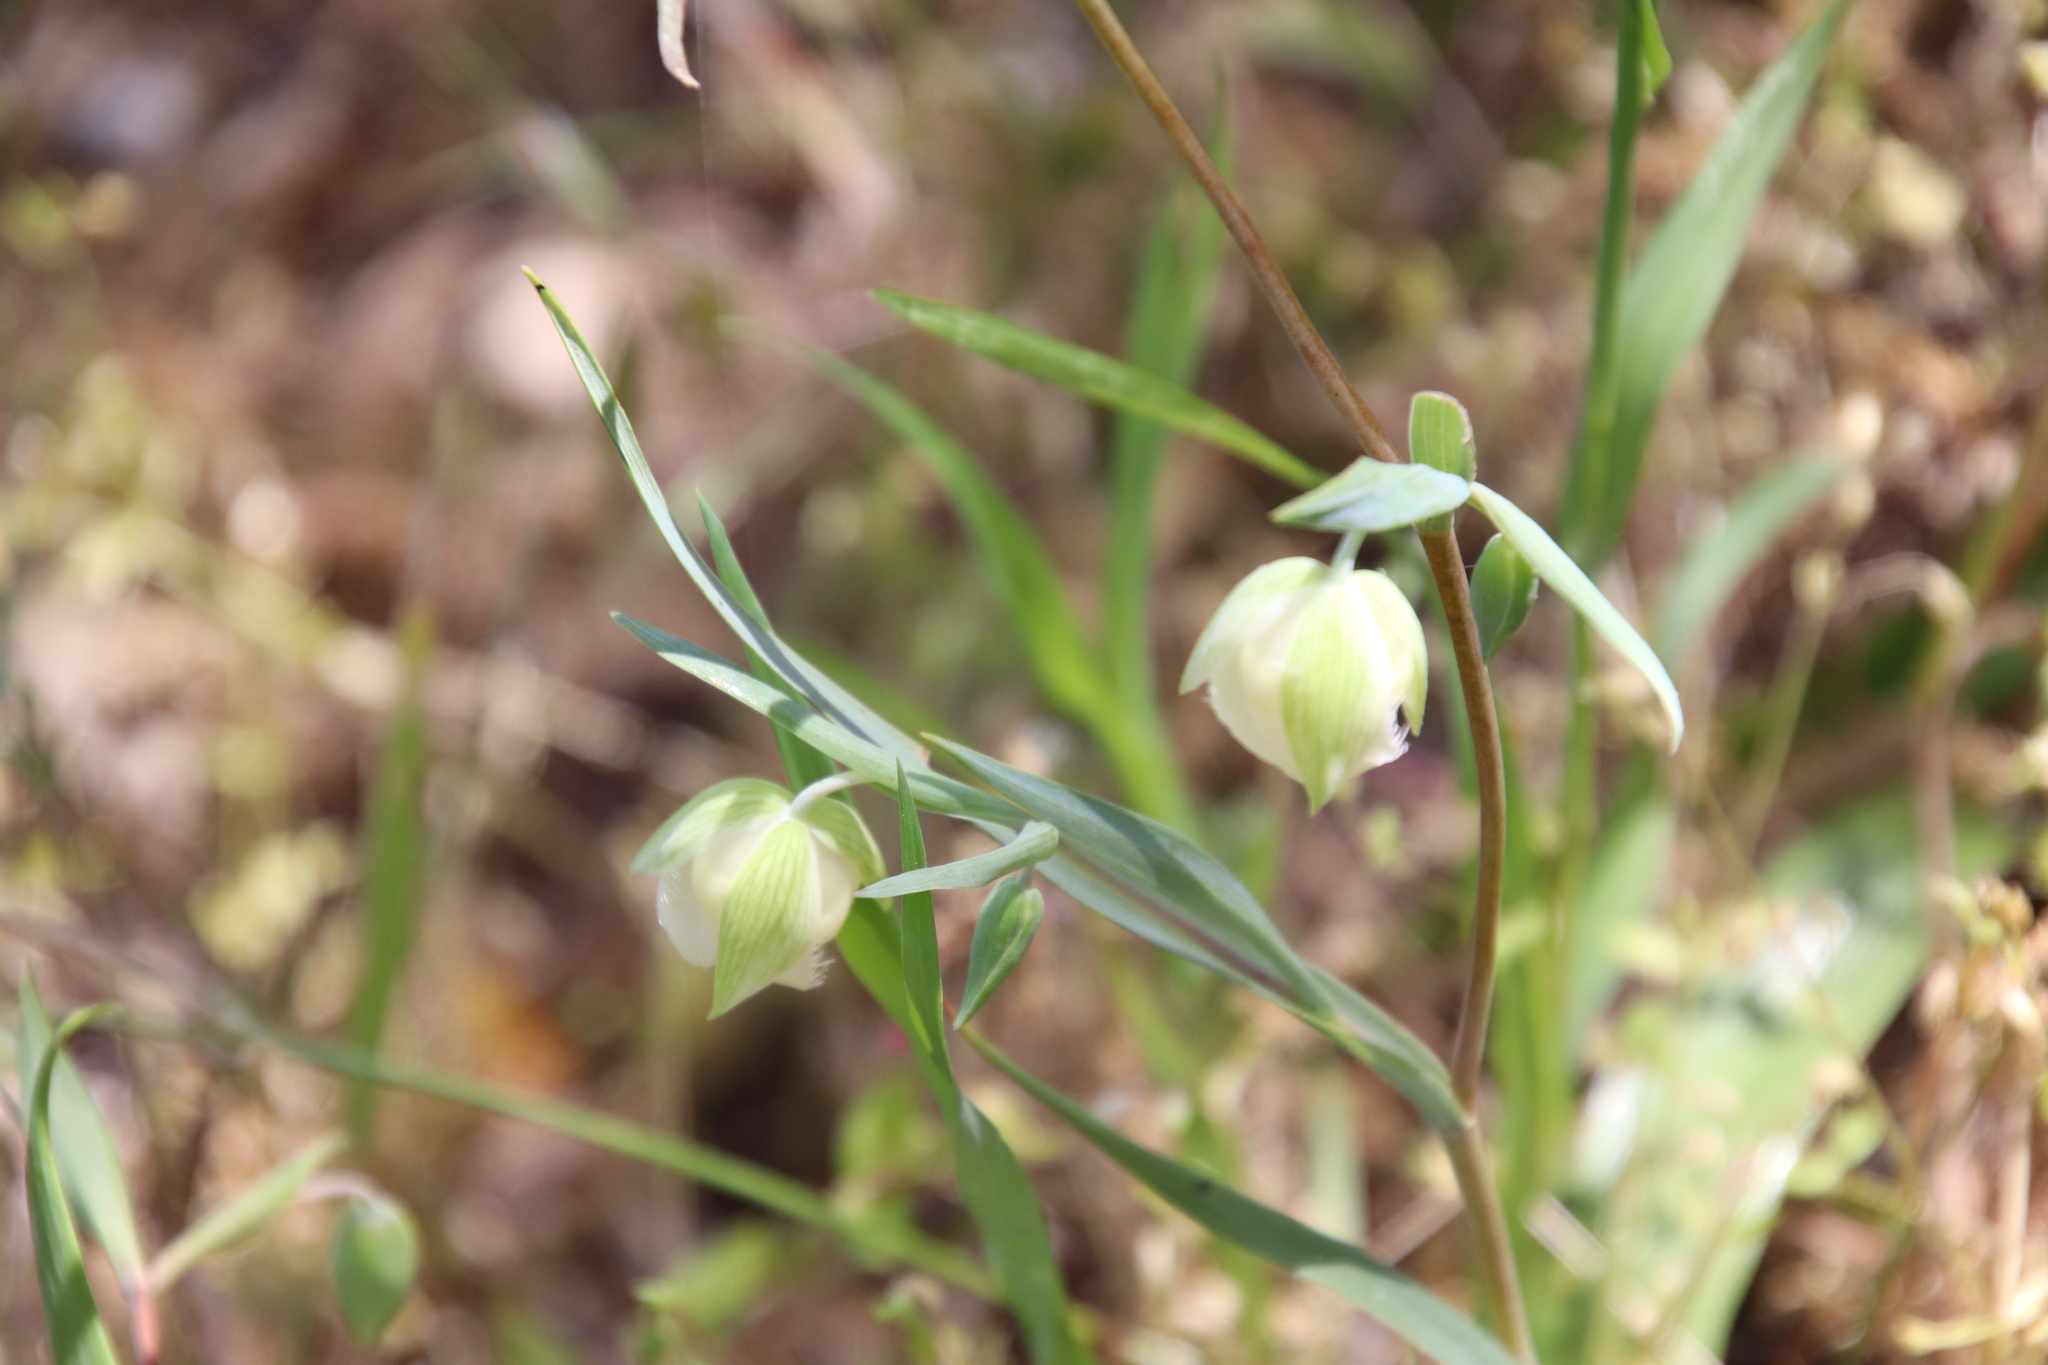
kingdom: Plantae
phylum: Tracheophyta
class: Liliopsida
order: Liliales
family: Liliaceae
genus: Calochortus
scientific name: Calochortus albus
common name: Fairy-lantern
